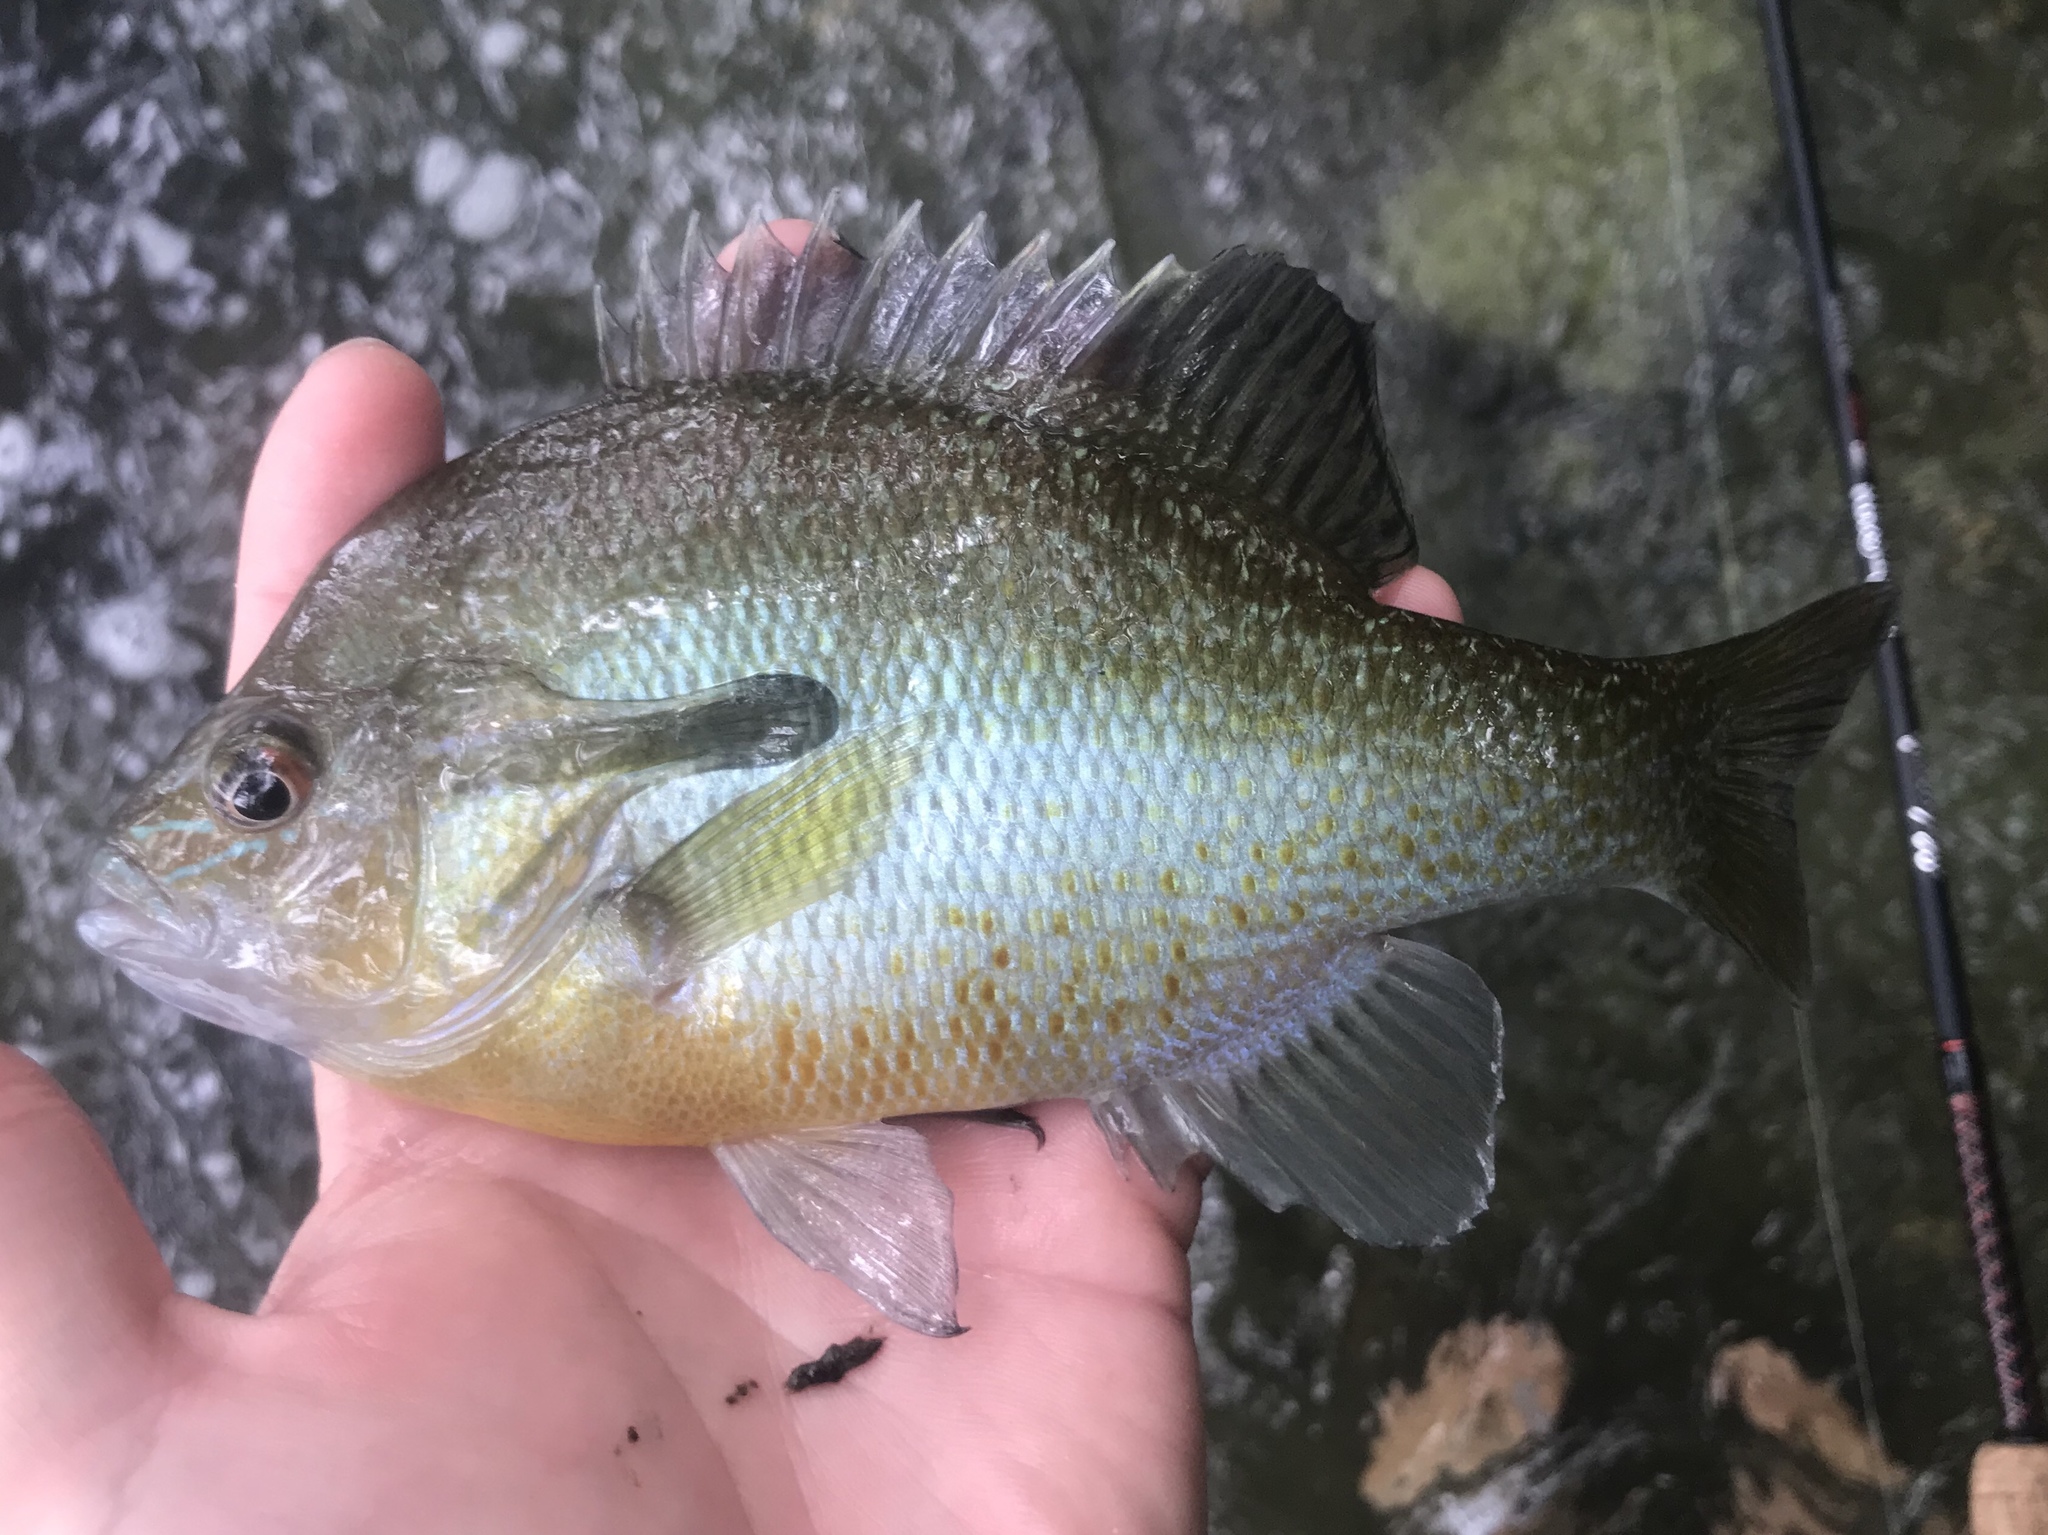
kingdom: Animalia
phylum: Chordata
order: Perciformes
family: Centrarchidae
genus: Lepomis
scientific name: Lepomis auritus
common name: Redbreast sunfish
